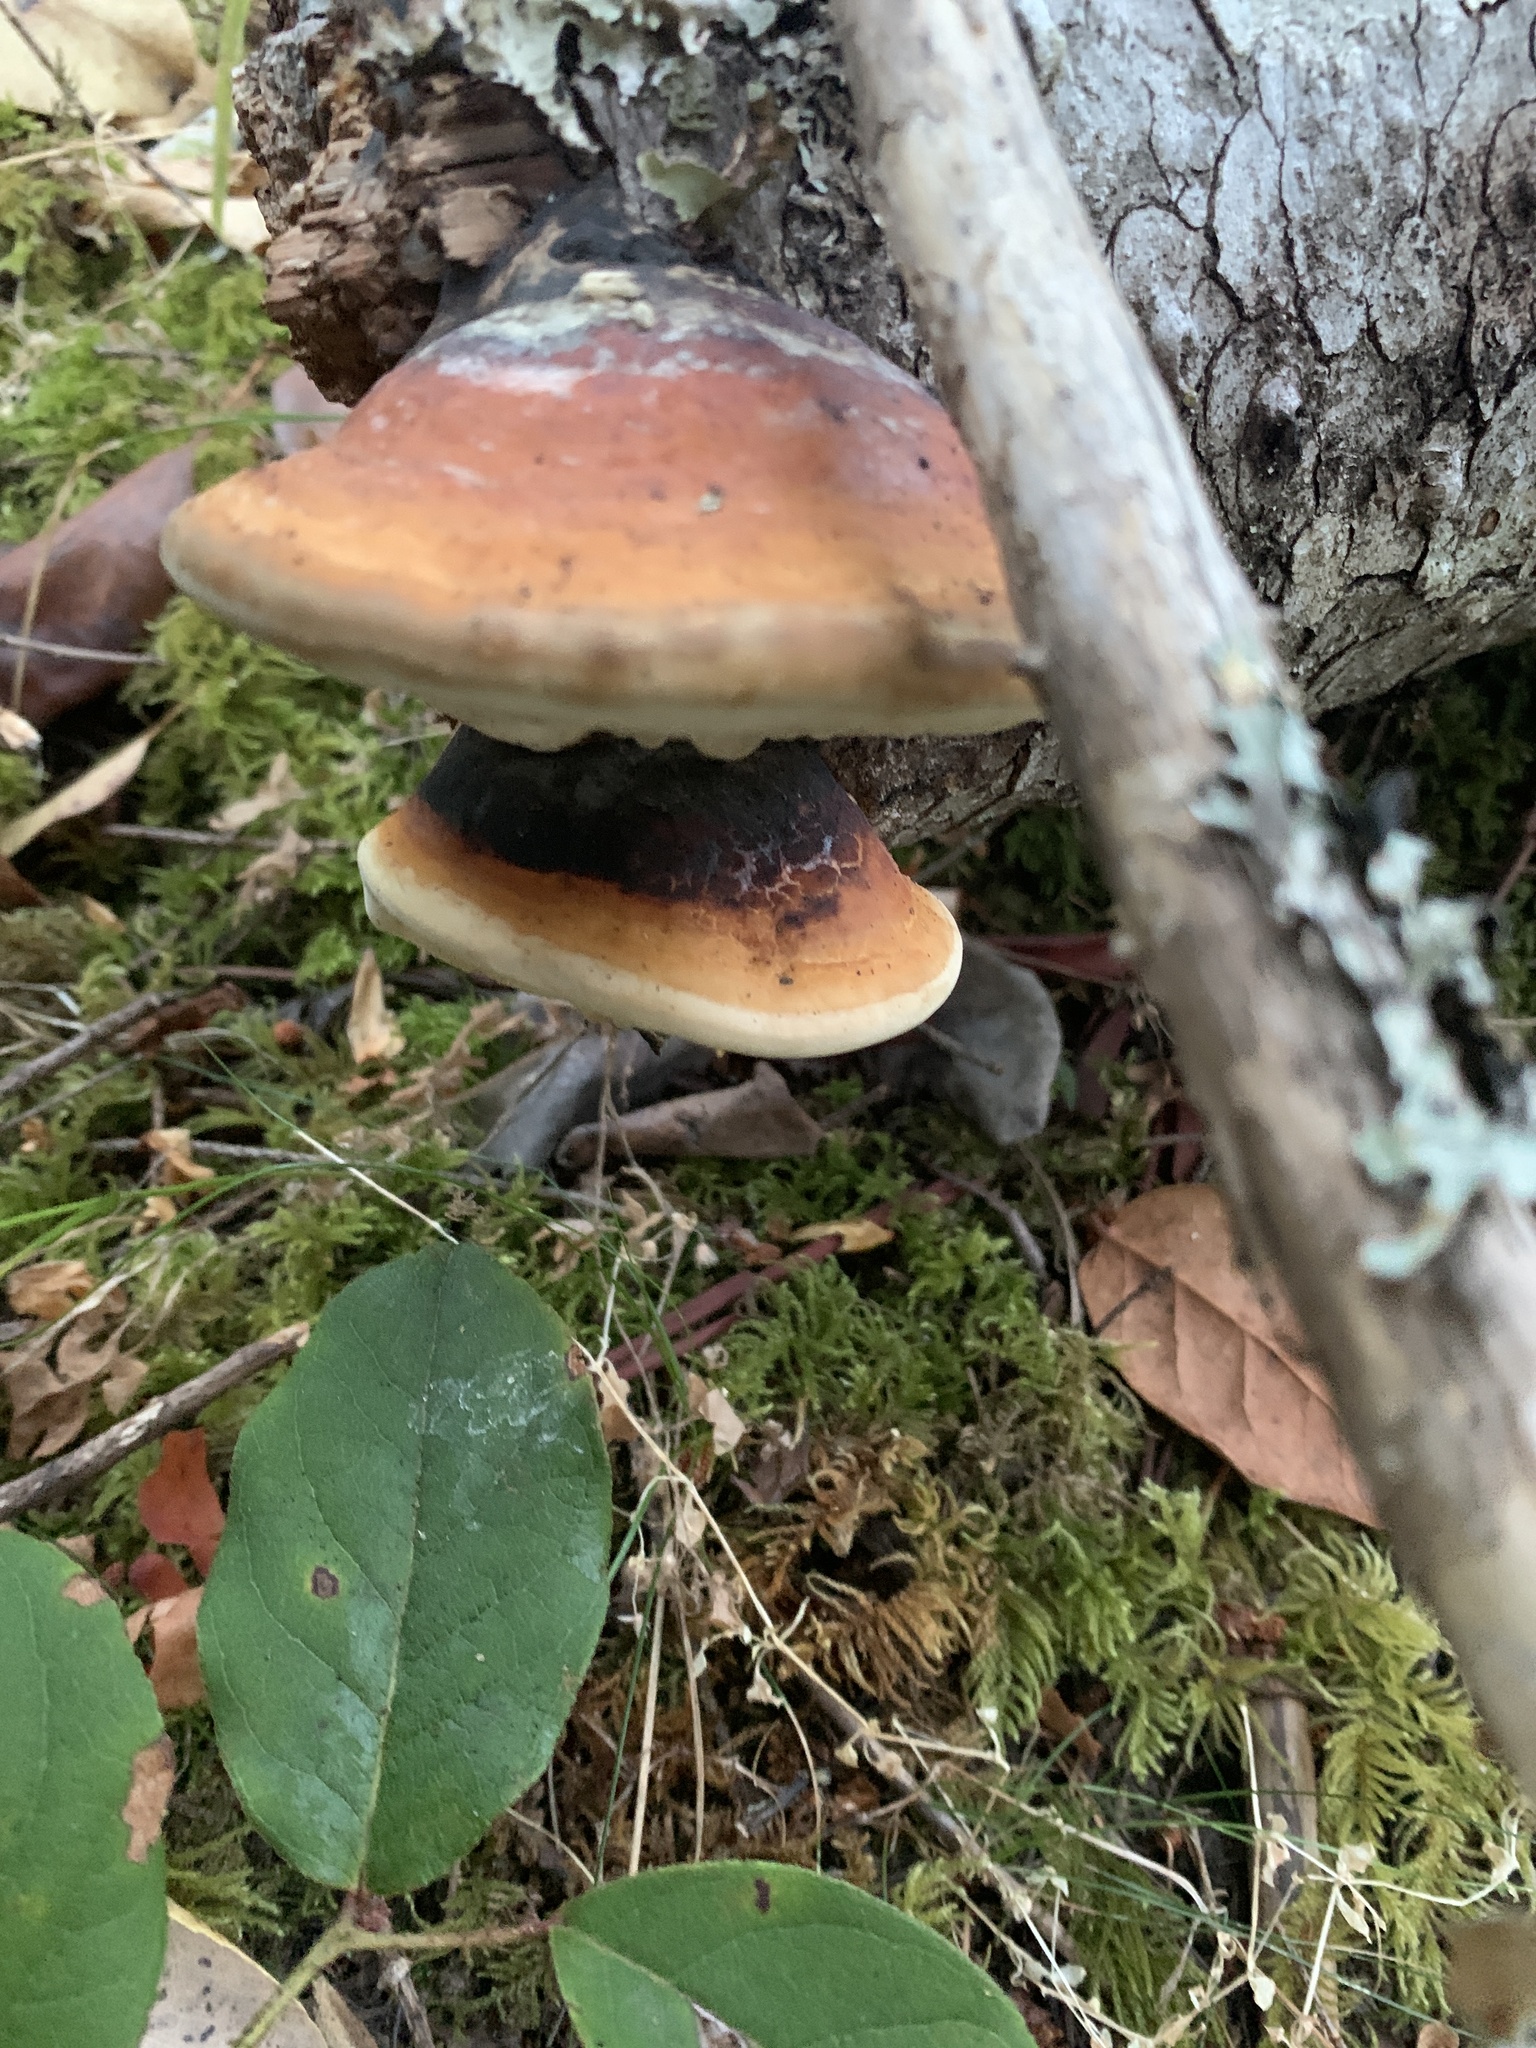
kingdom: Fungi
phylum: Basidiomycota
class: Agaricomycetes
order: Polyporales
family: Fomitopsidaceae
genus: Fomitopsis
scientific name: Fomitopsis mounceae
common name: Northern red belt
